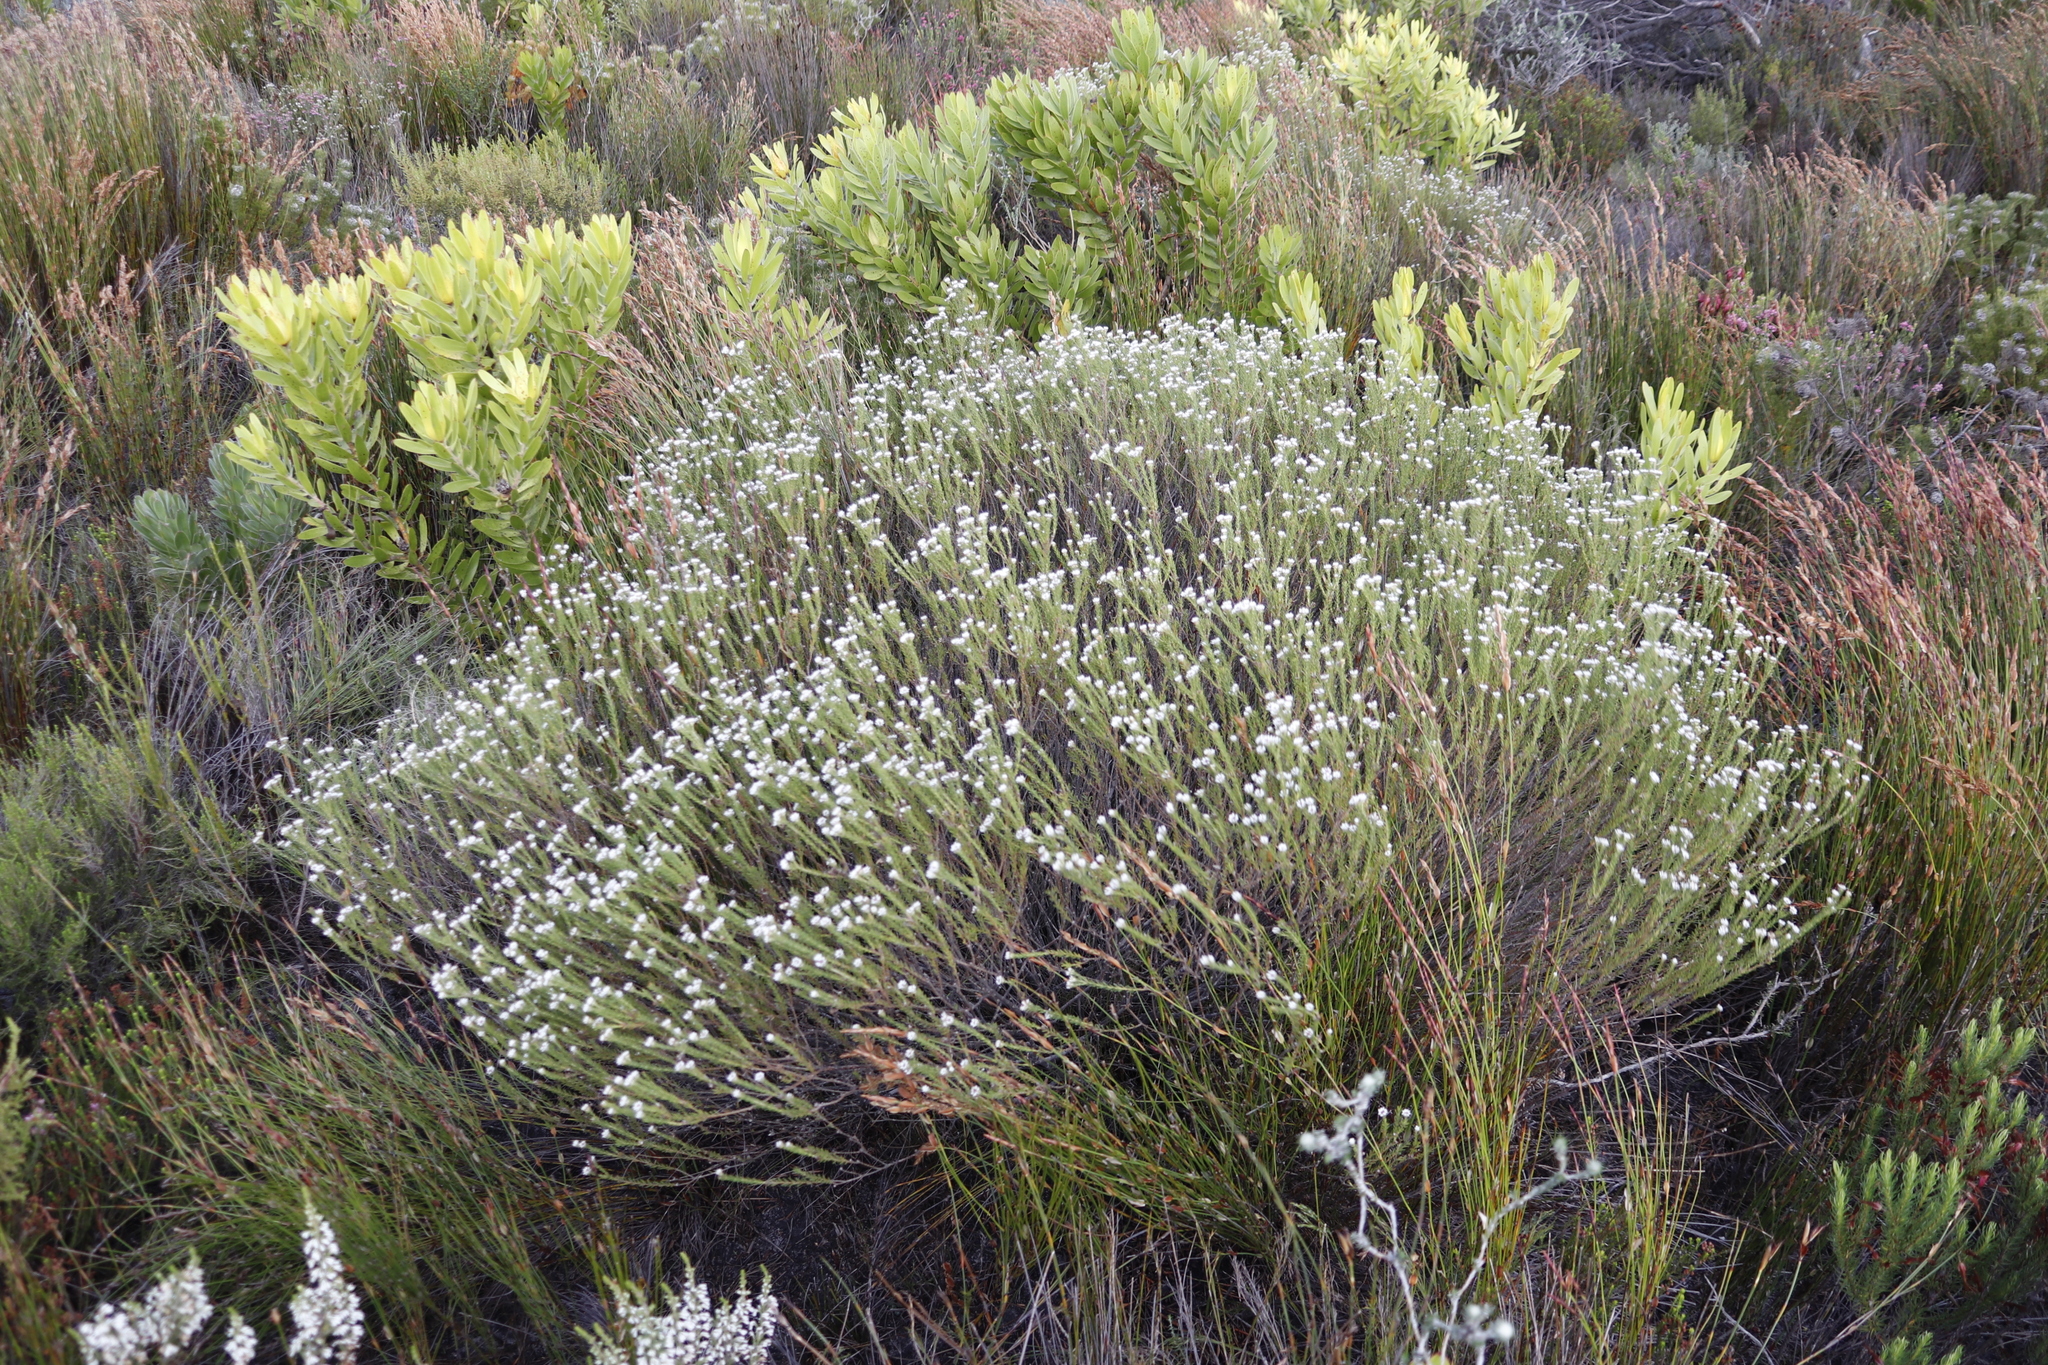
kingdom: Plantae
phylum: Tracheophyta
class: Magnoliopsida
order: Bruniales
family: Bruniaceae
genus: Staavia
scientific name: Staavia radiata
